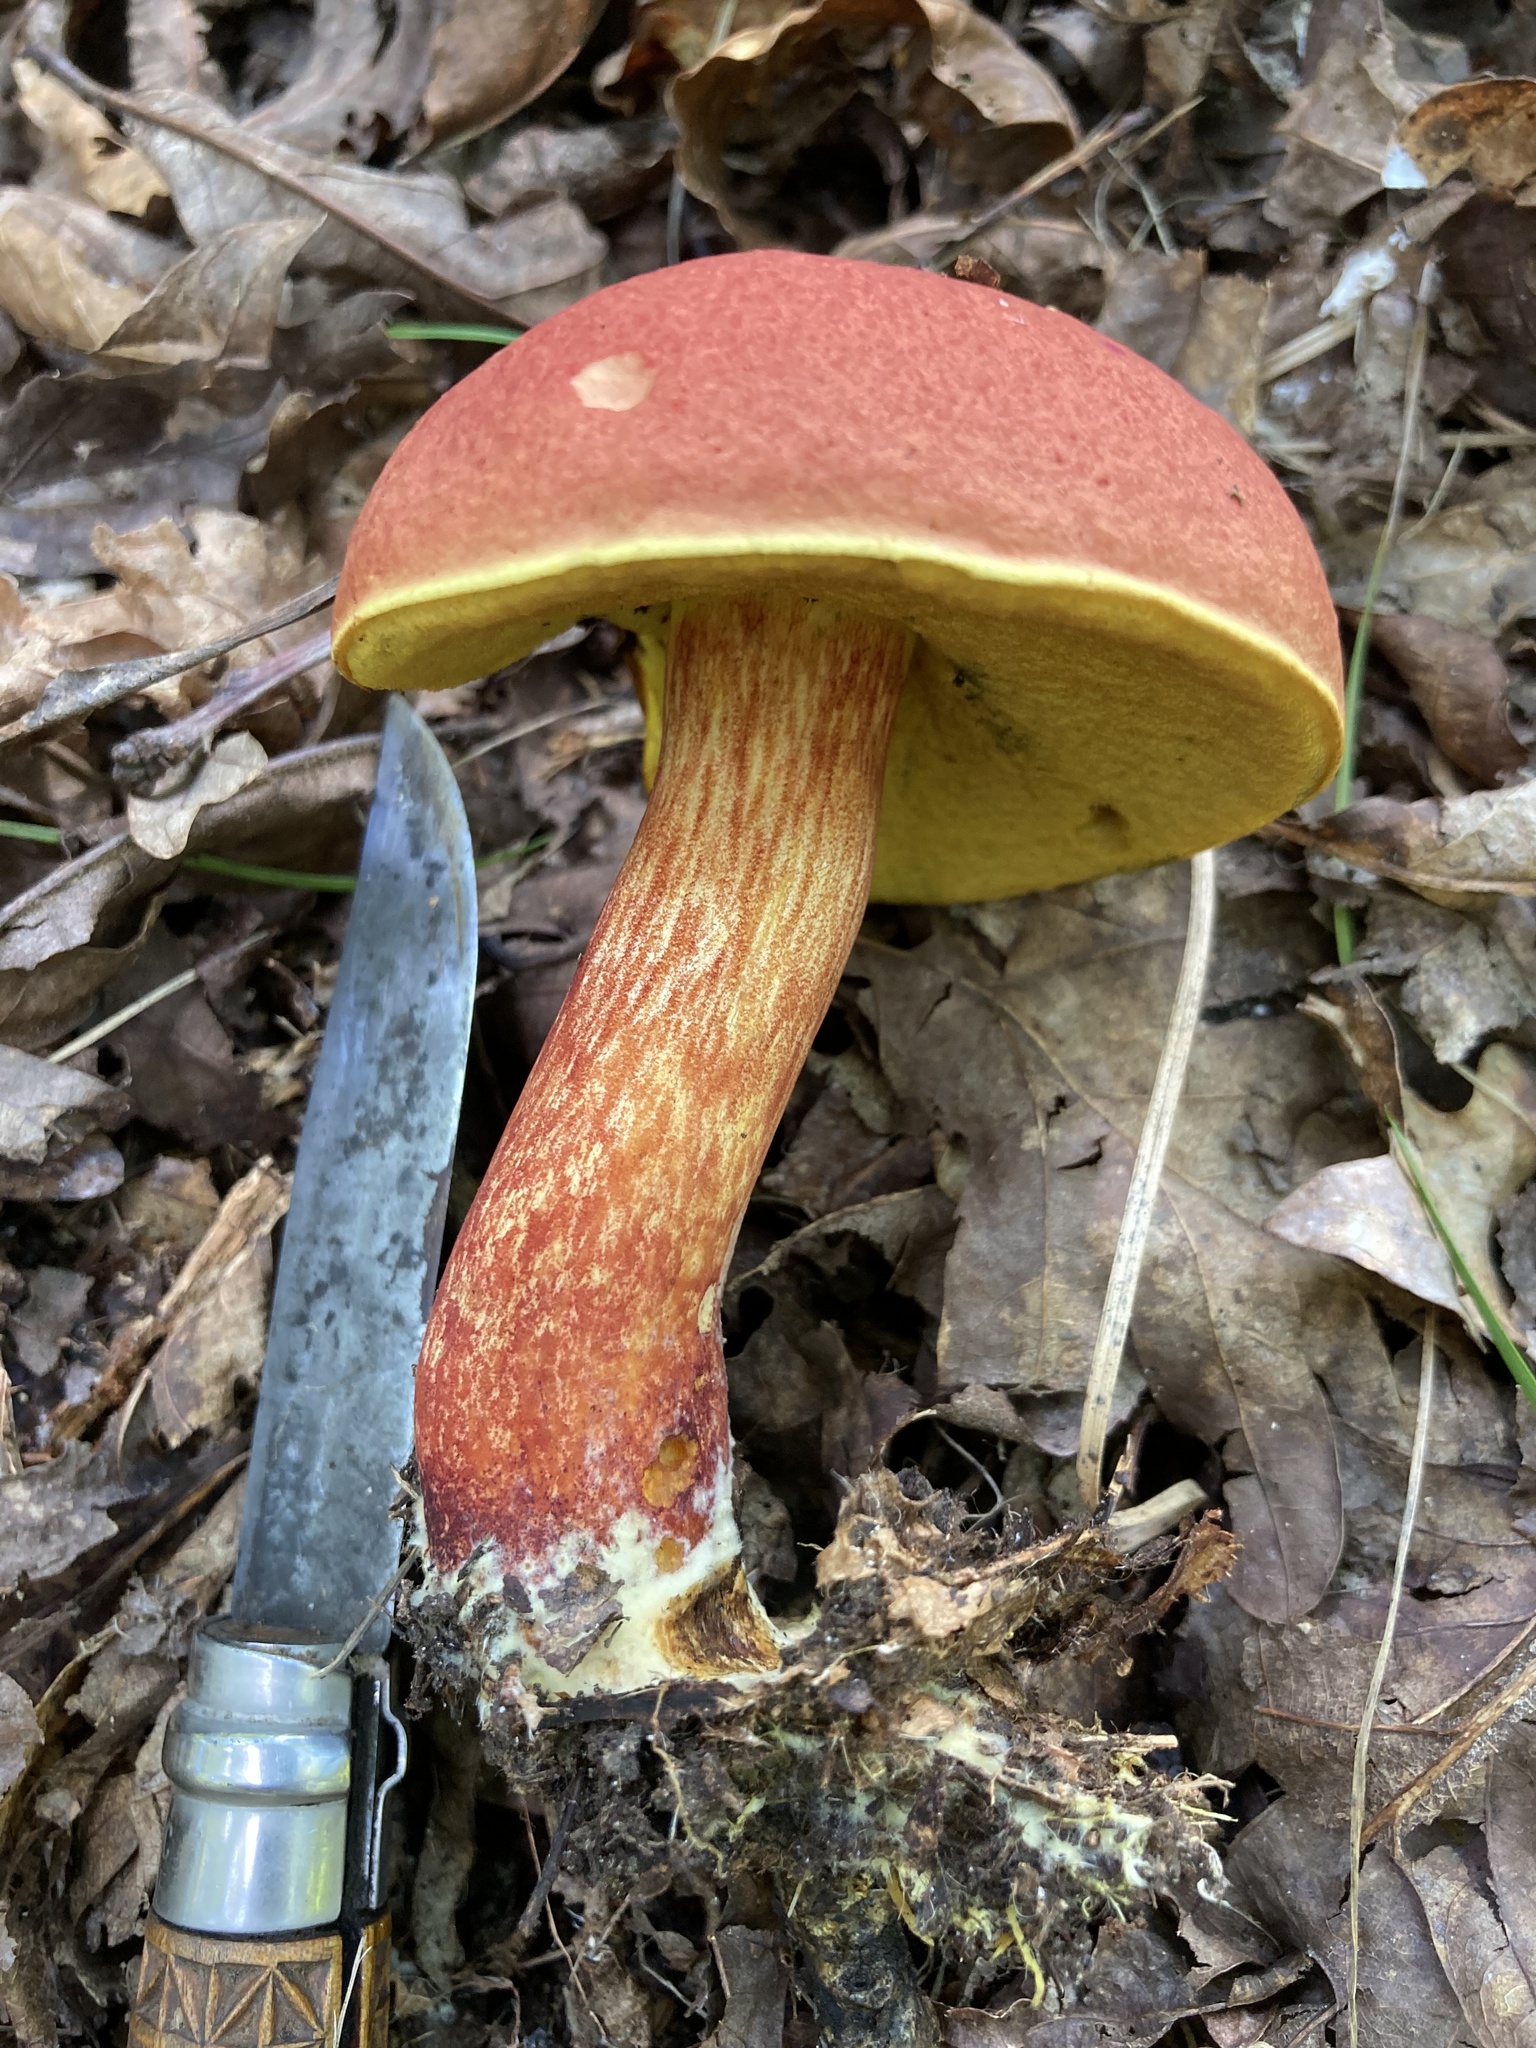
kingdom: Fungi
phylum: Basidiomycota
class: Agaricomycetes
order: Boletales
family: Boletaceae
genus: Baorangia
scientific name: Baorangia bicolor
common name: Two-colored bolete
